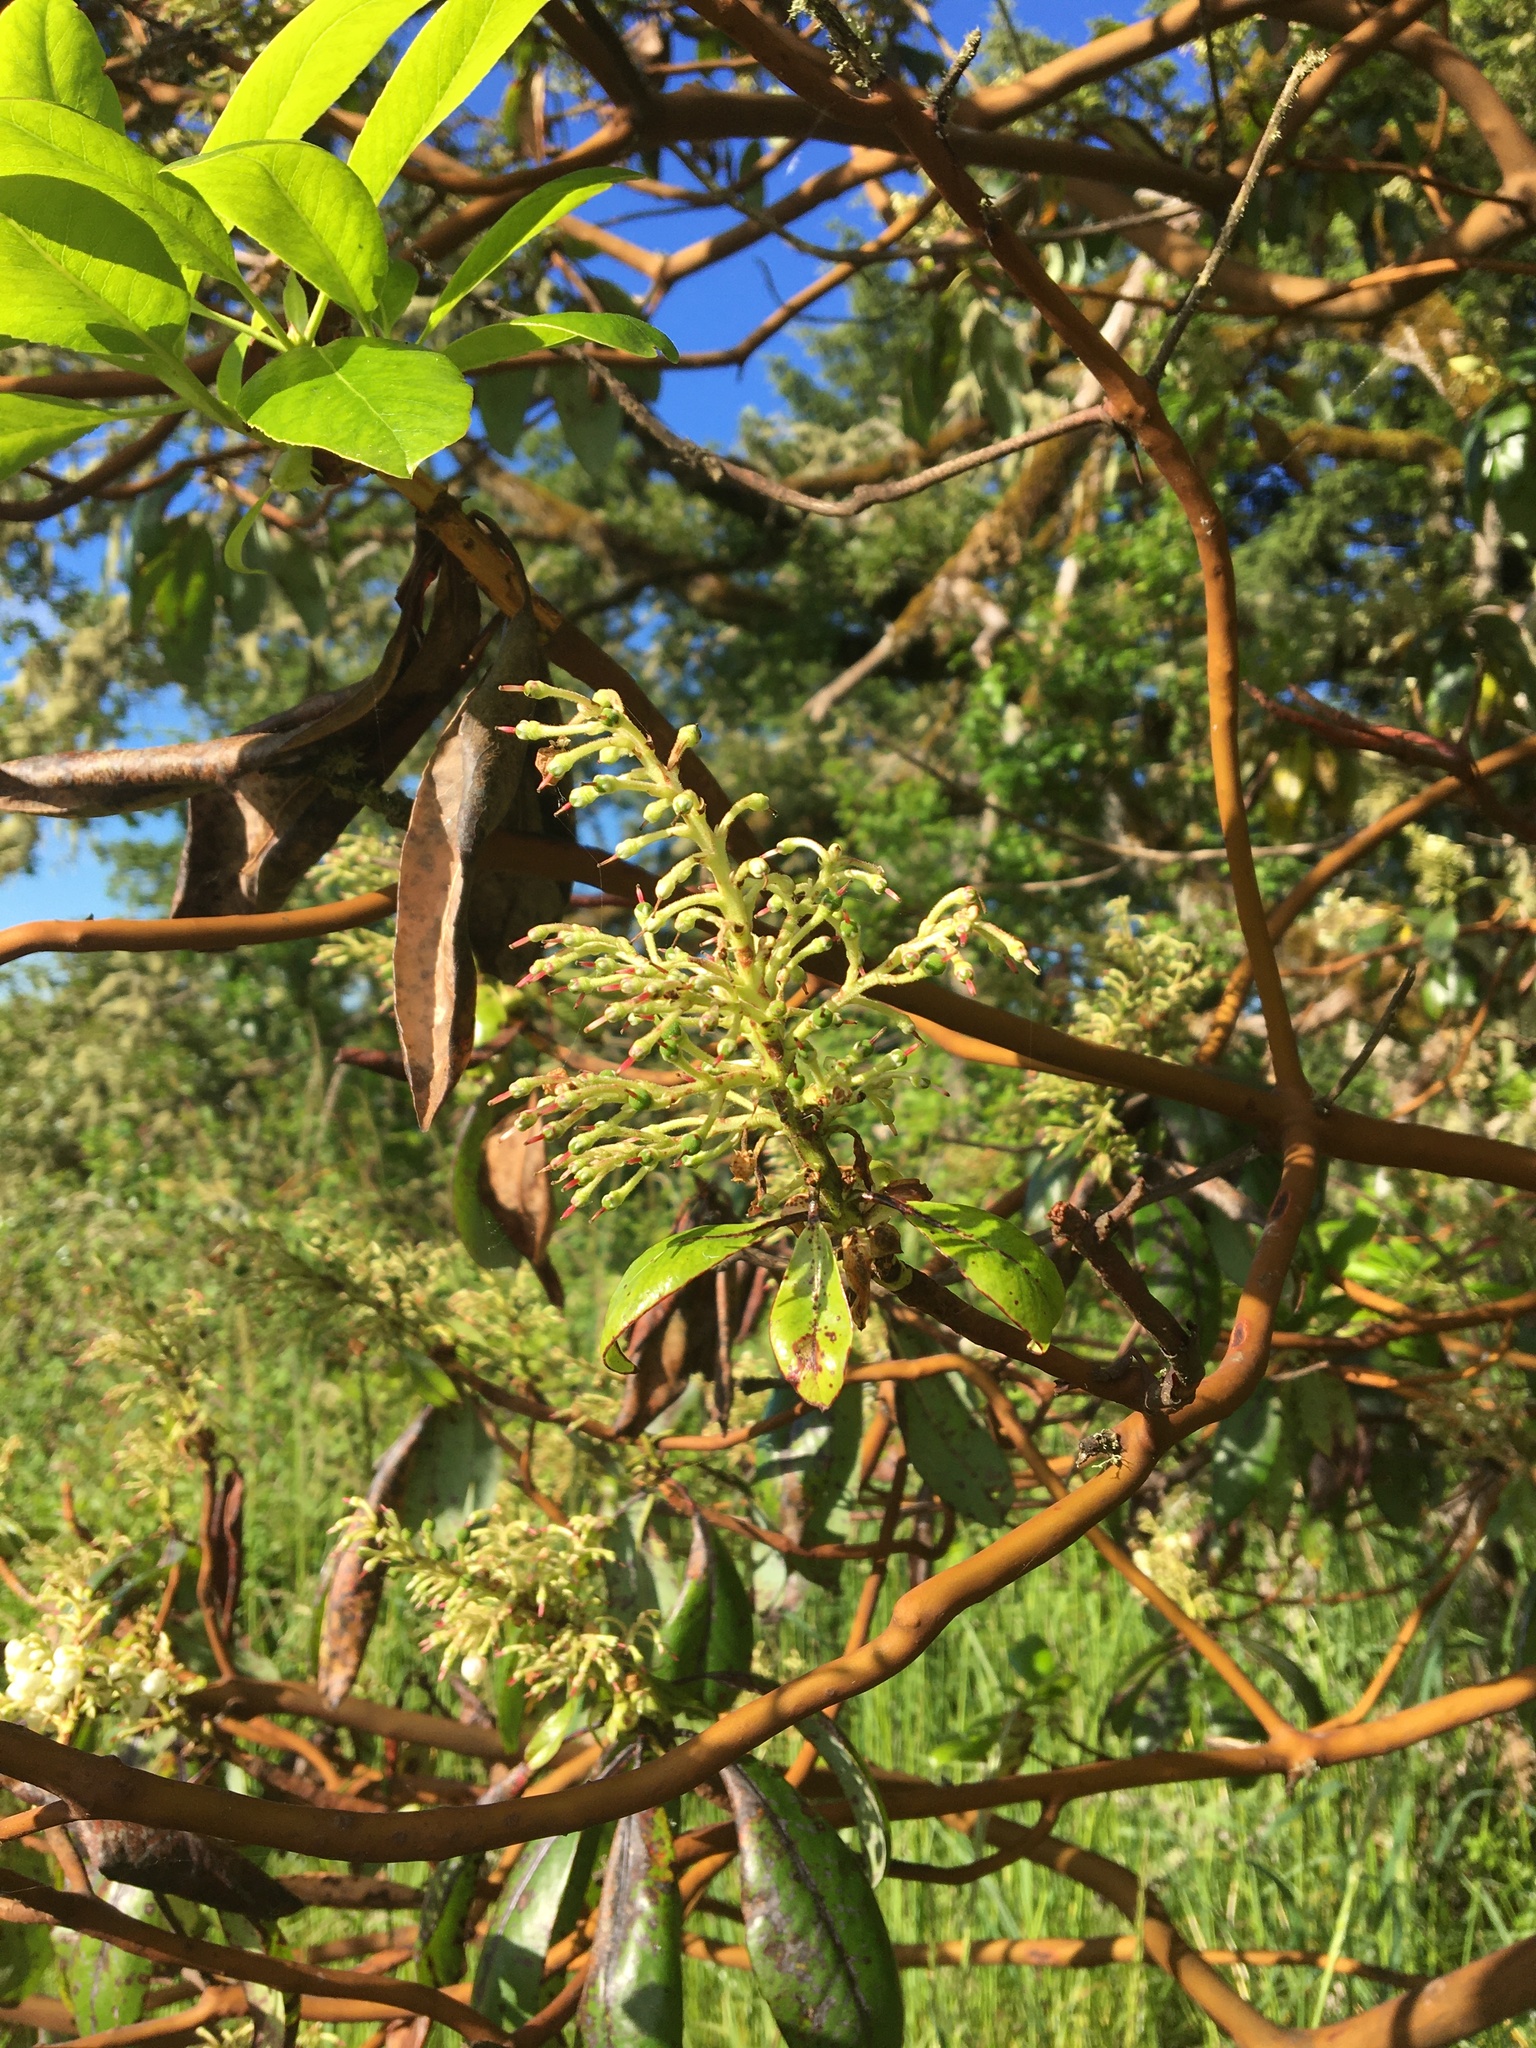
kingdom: Plantae
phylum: Tracheophyta
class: Magnoliopsida
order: Ericales
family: Ericaceae
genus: Arbutus
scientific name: Arbutus menziesii
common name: Pacific madrone
